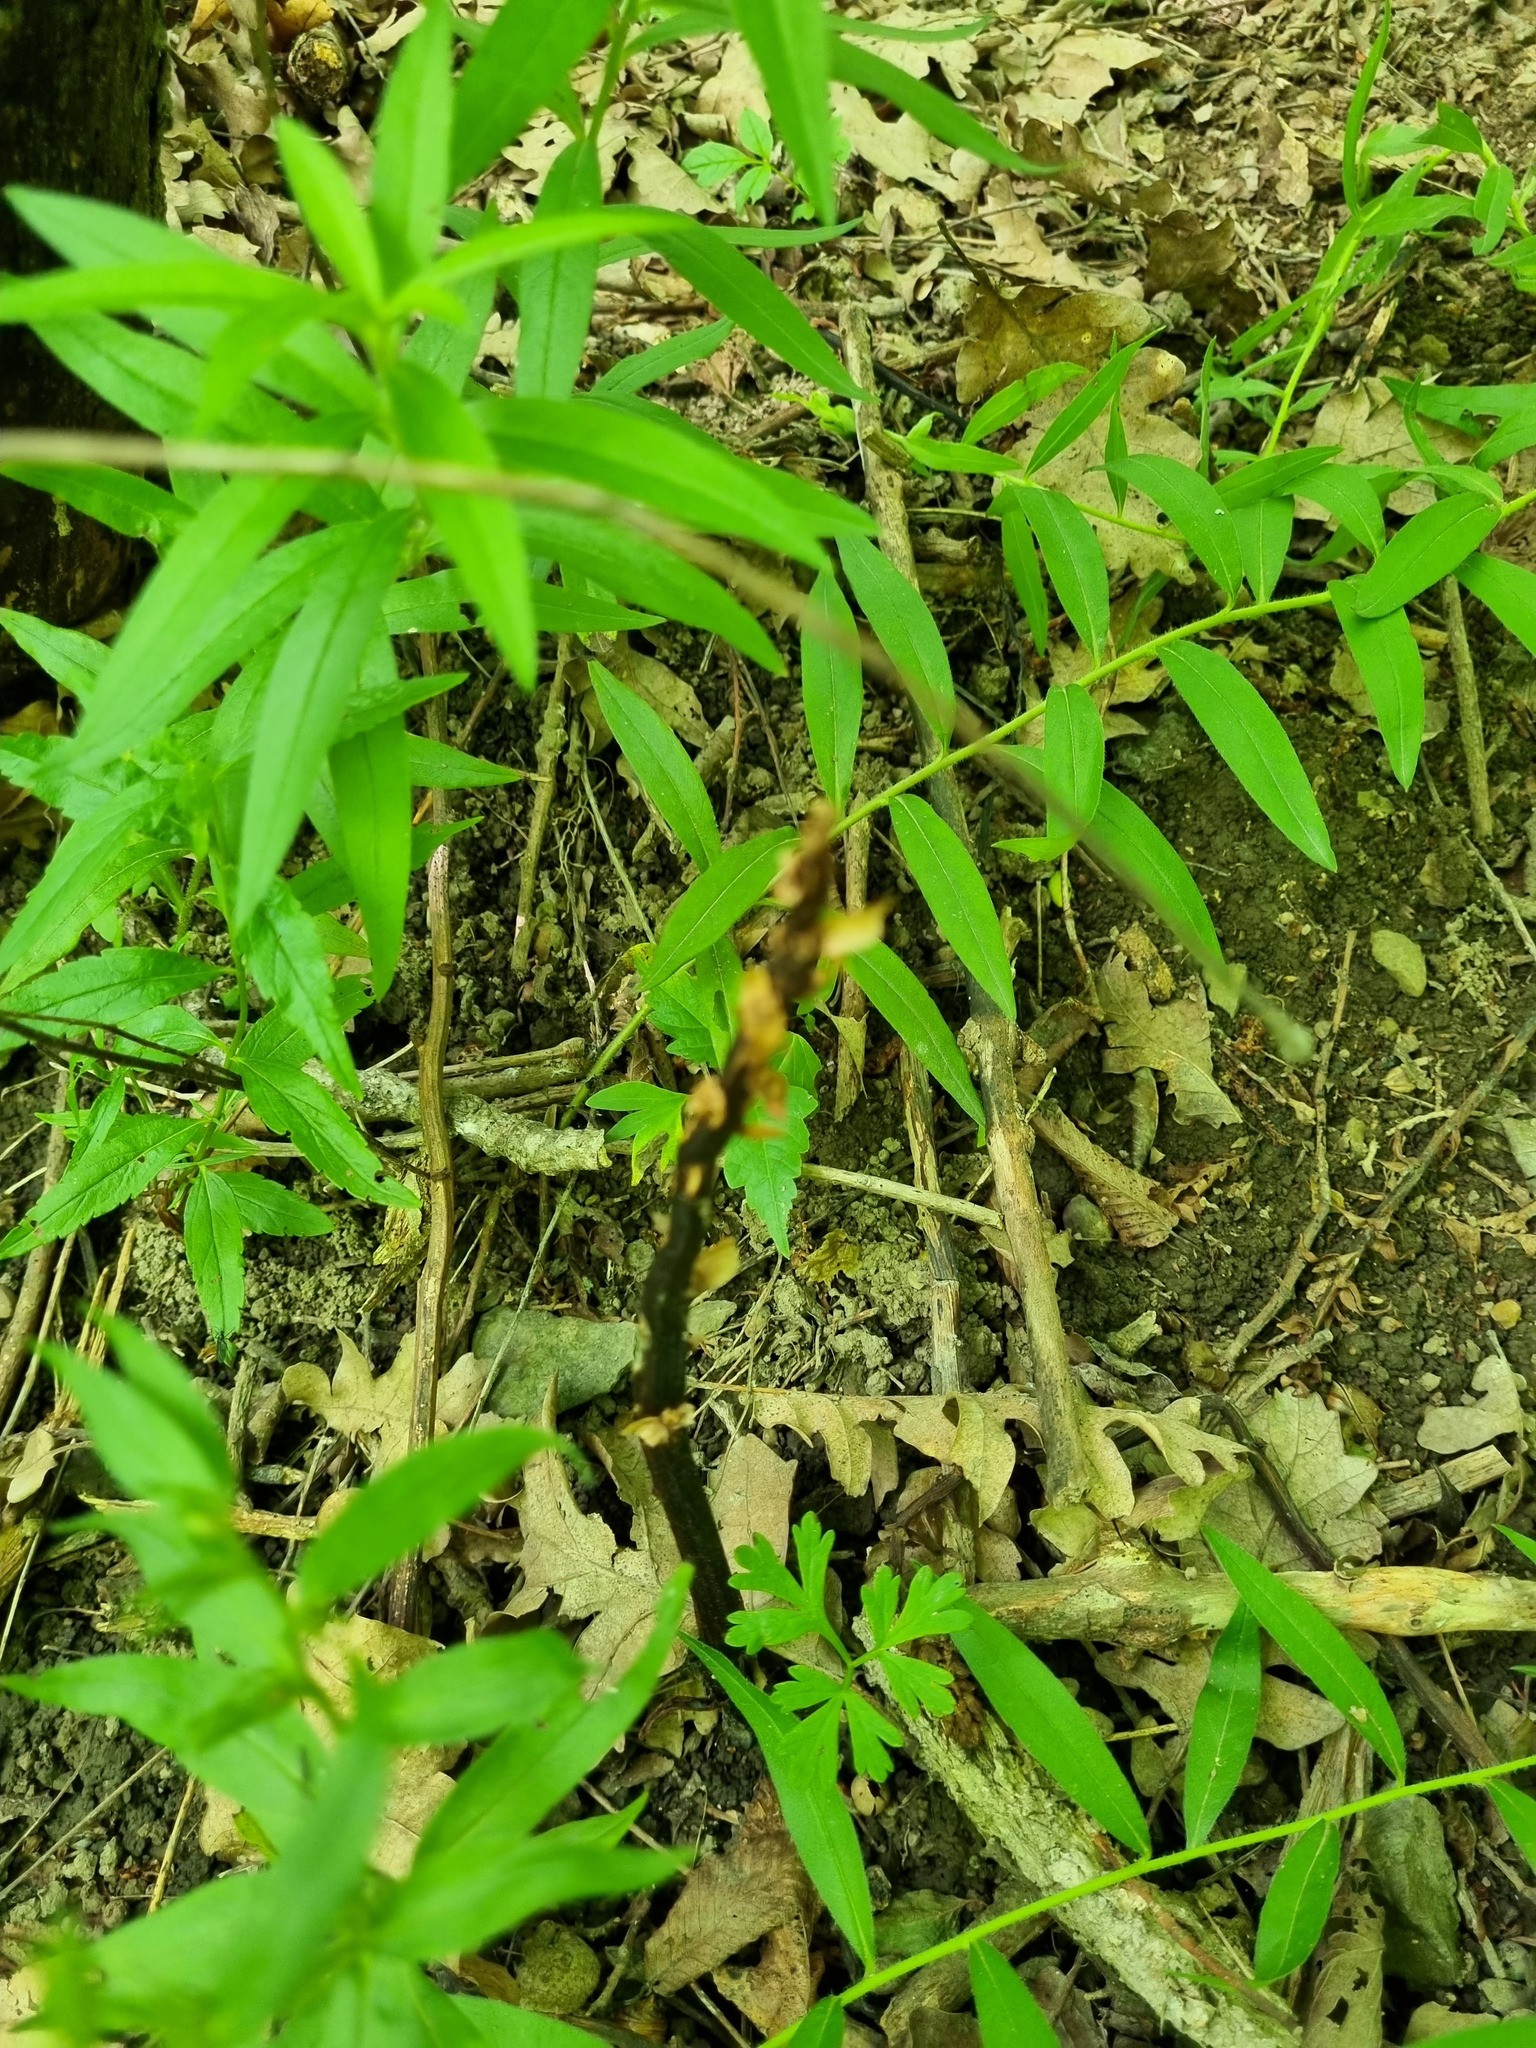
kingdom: Plantae
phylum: Tracheophyta
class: Magnoliopsida
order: Boraginales
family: Boraginaceae
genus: Aegonychon
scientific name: Aegonychon purpurocaeruleum
